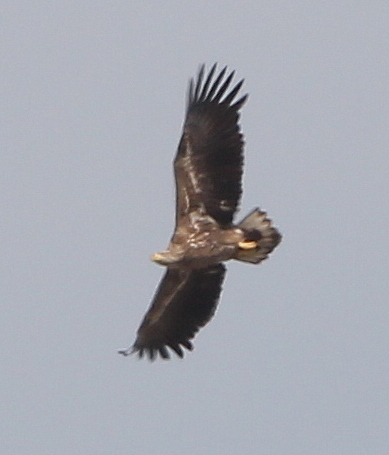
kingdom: Animalia
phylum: Chordata
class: Aves
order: Accipitriformes
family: Accipitridae
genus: Haliaeetus
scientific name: Haliaeetus albicilla
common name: White-tailed eagle
